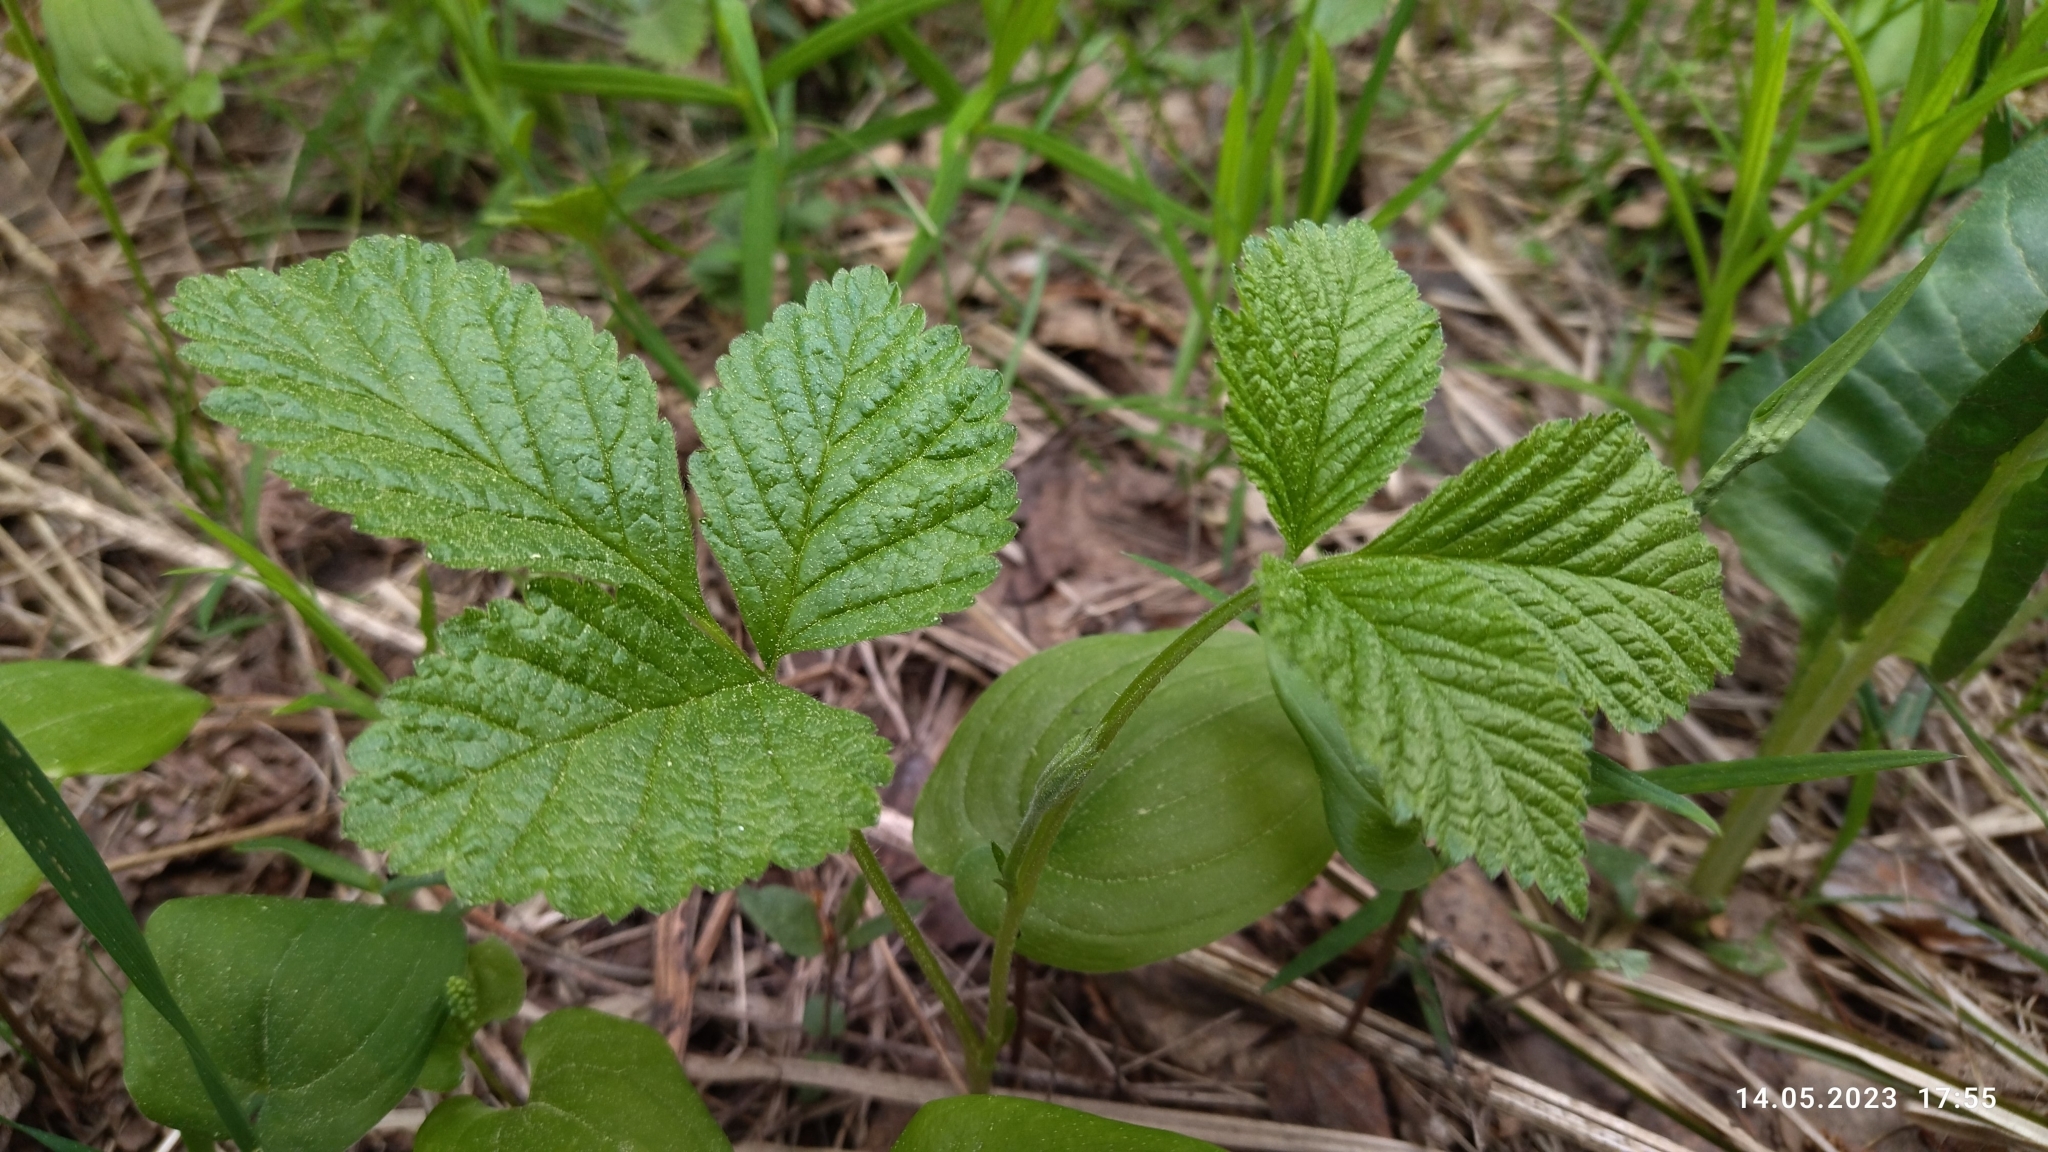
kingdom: Plantae
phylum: Tracheophyta
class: Magnoliopsida
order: Rosales
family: Rosaceae
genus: Rubus
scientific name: Rubus saxatilis
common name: Stone bramble
